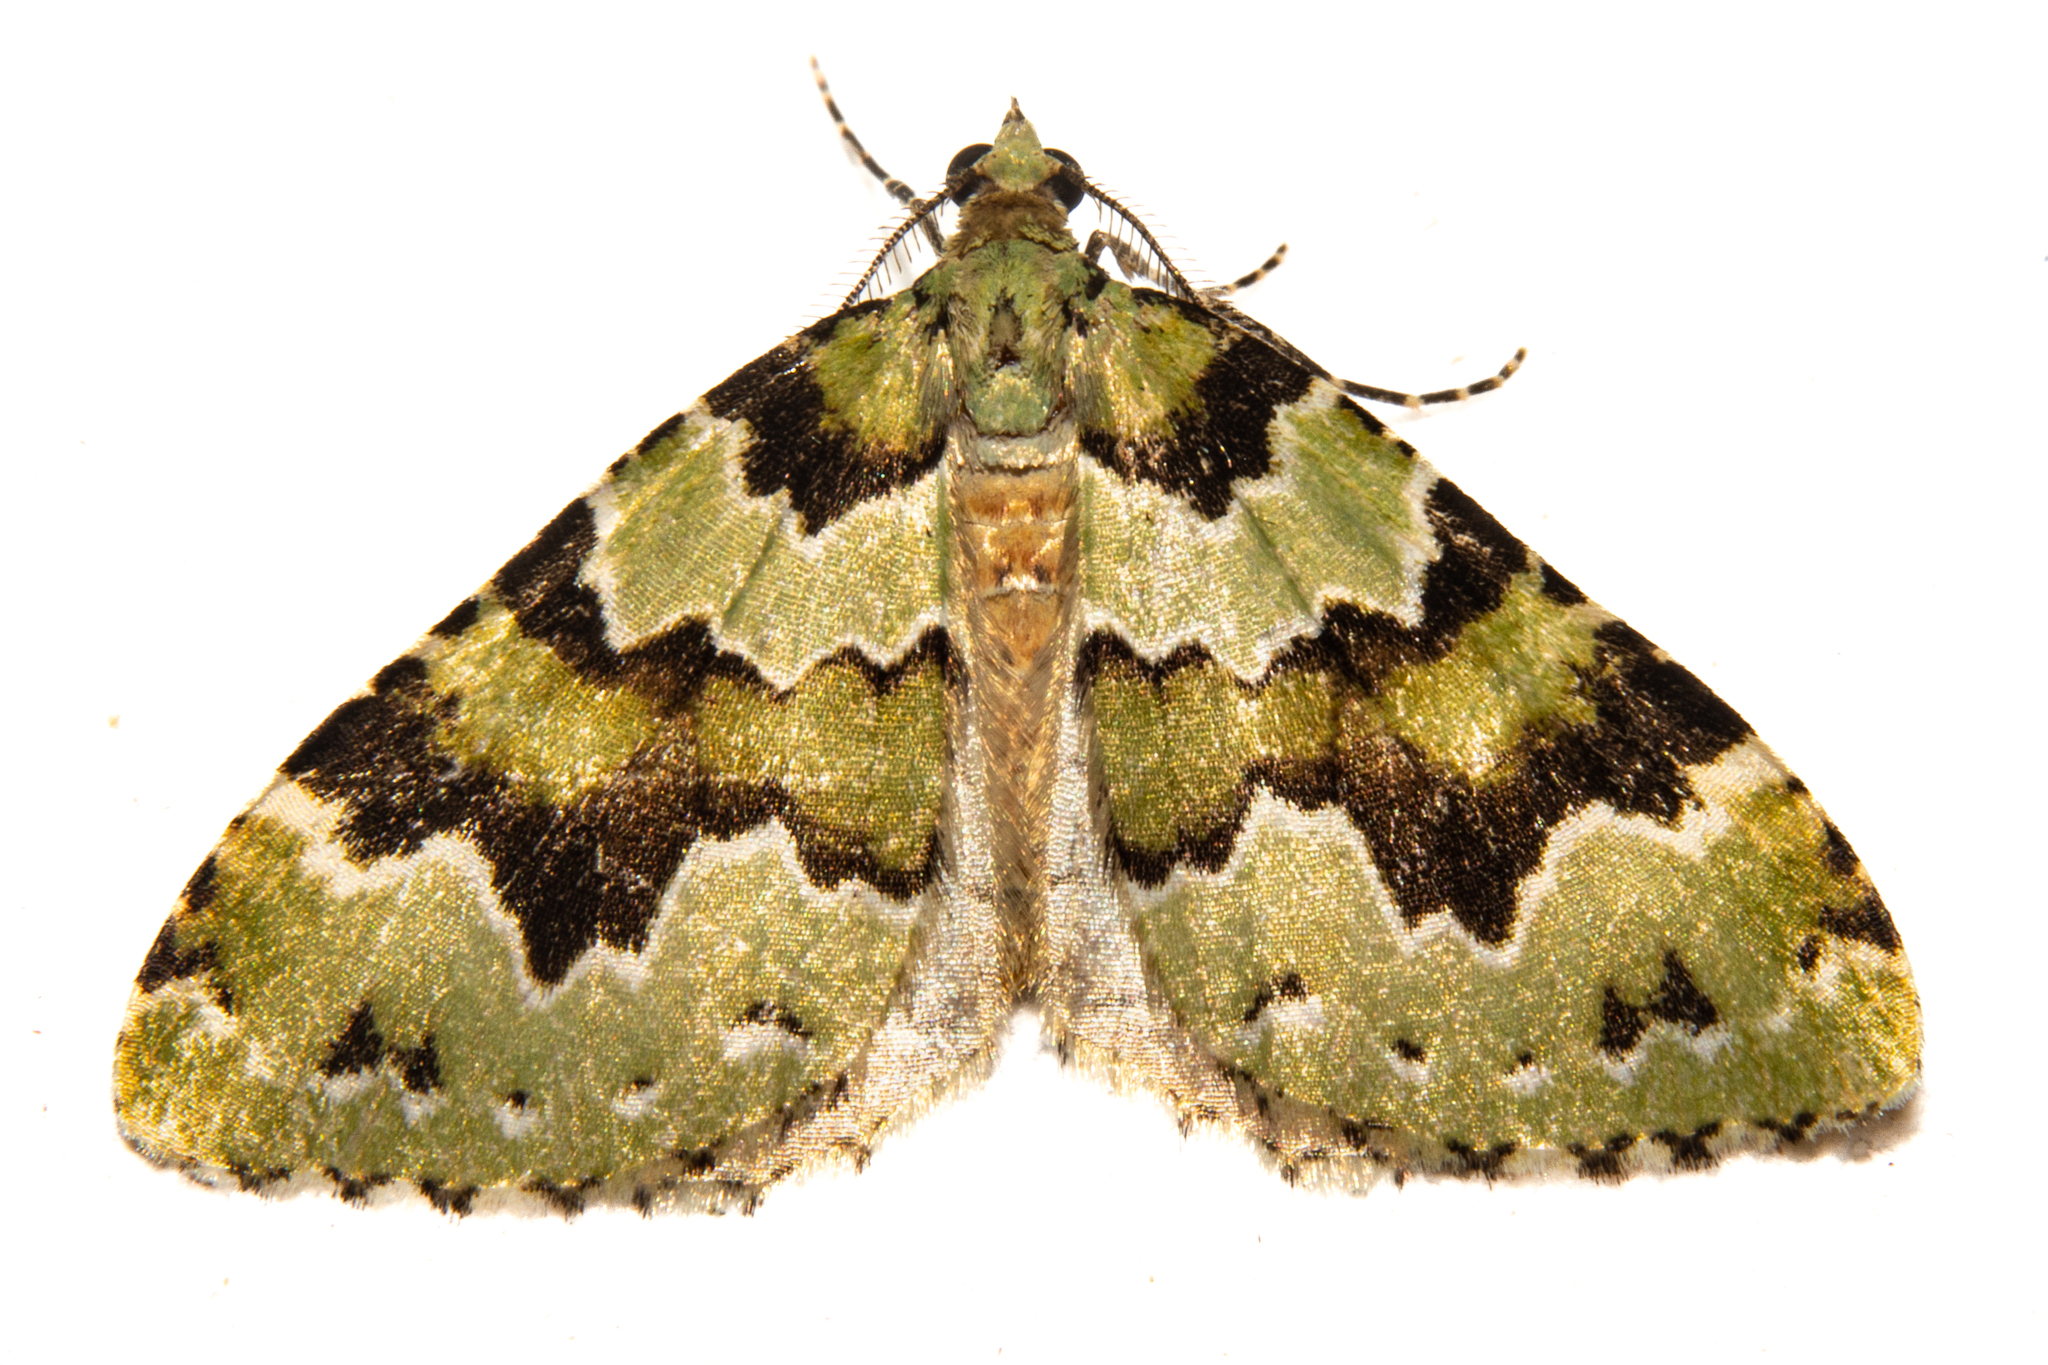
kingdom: Animalia
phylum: Arthropoda
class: Insecta
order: Lepidoptera
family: Geometridae
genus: Asaphodes
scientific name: Asaphodes adonis
